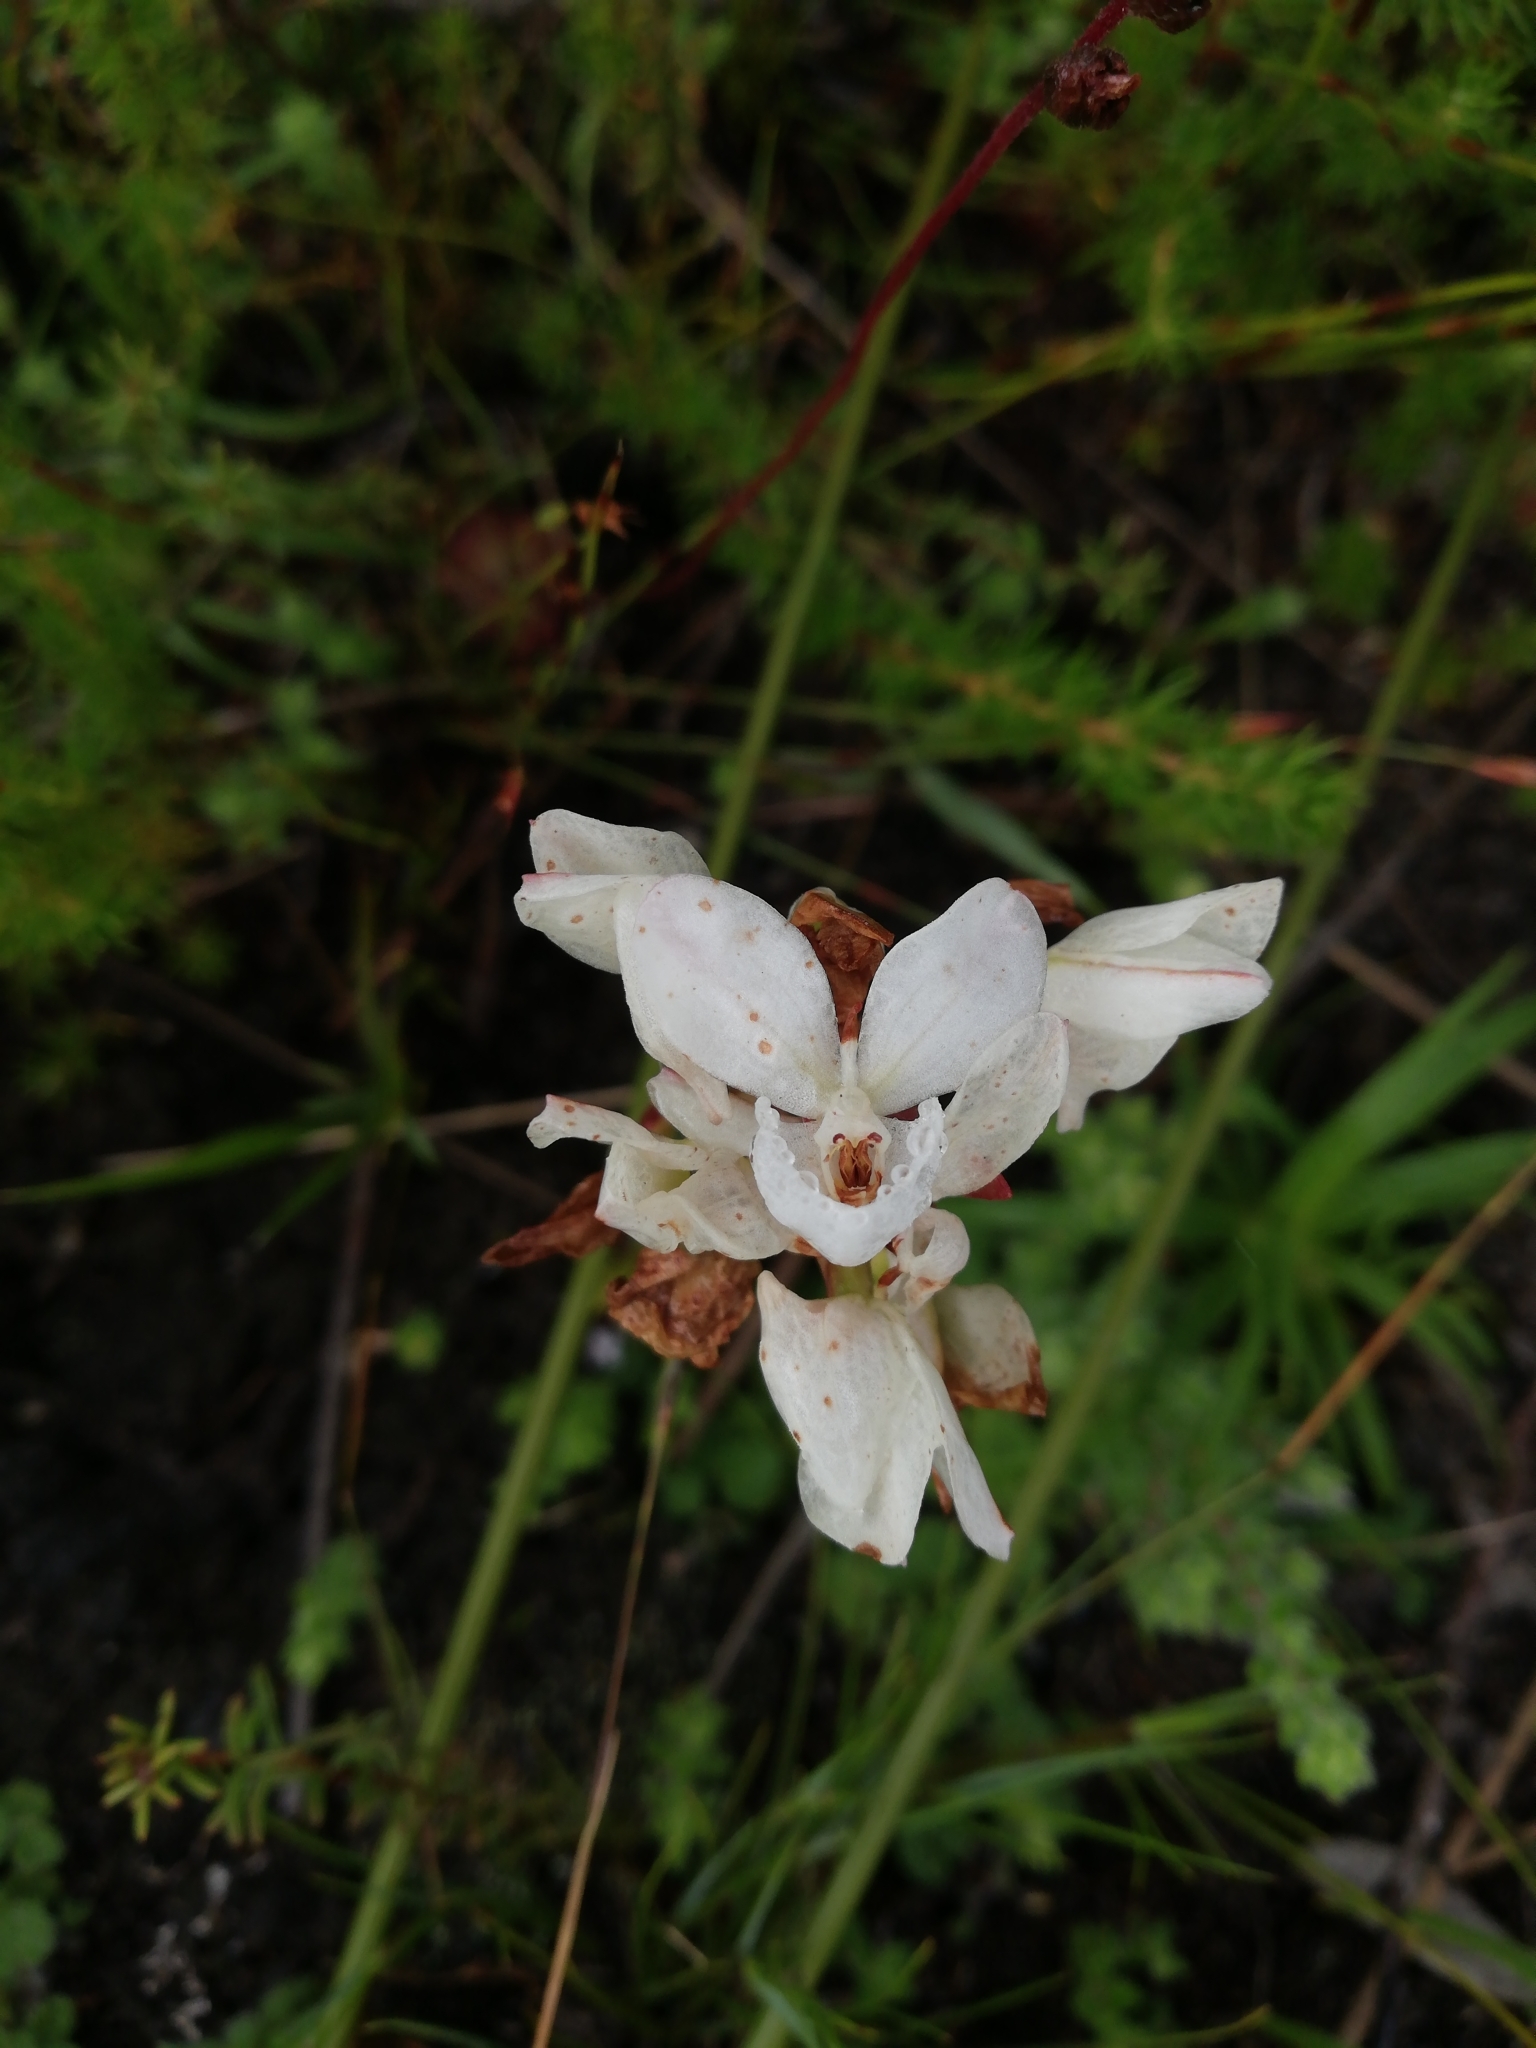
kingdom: Plantae
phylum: Tracheophyta
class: Liliopsida
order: Asparagales
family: Orchidaceae
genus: Disa
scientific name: Disa tripetaloides
